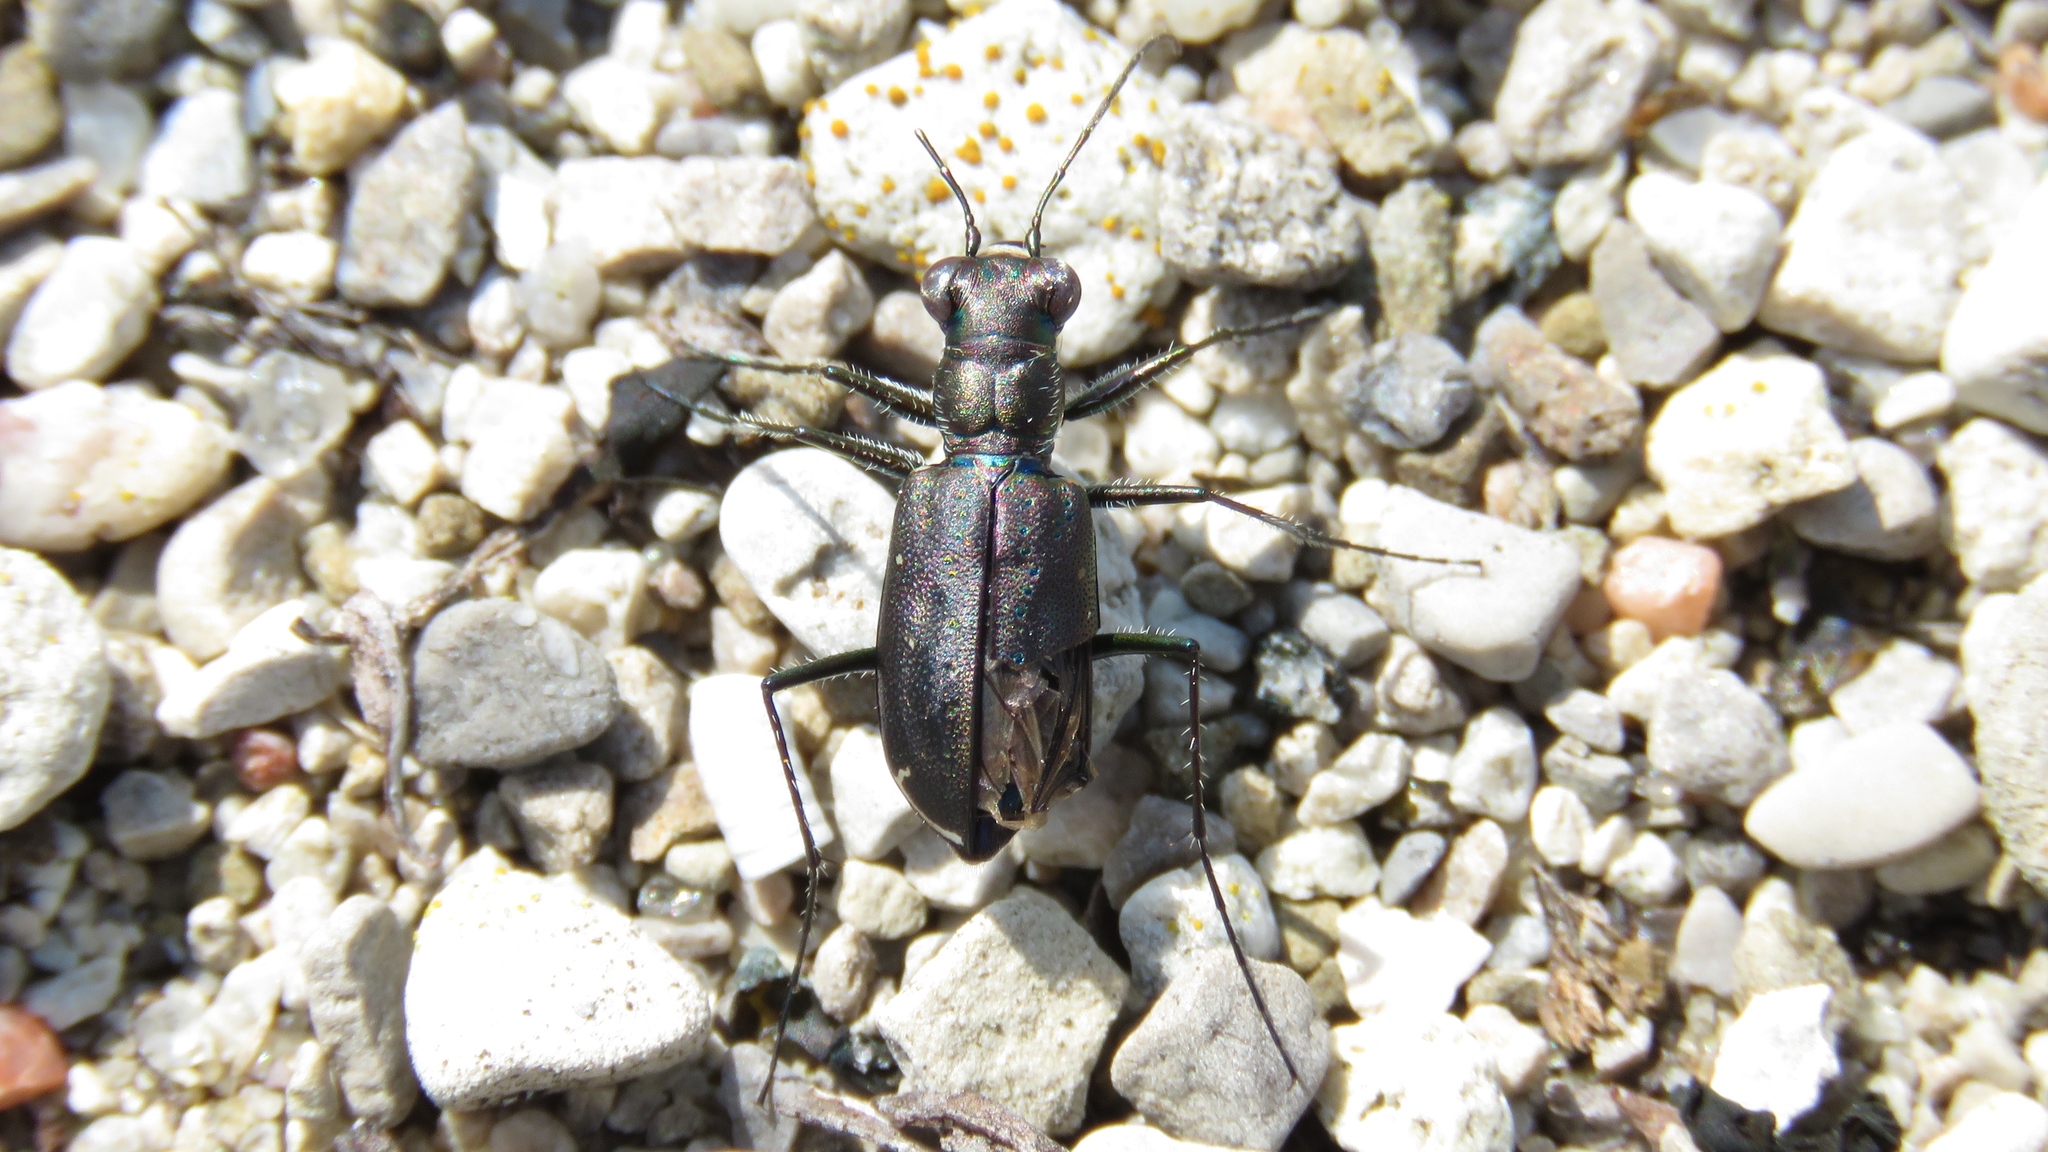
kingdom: Animalia
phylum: Arthropoda
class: Insecta
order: Coleoptera
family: Carabidae
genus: Cicindela
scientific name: Cicindela punctulata
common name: Punctured tiger beetle
